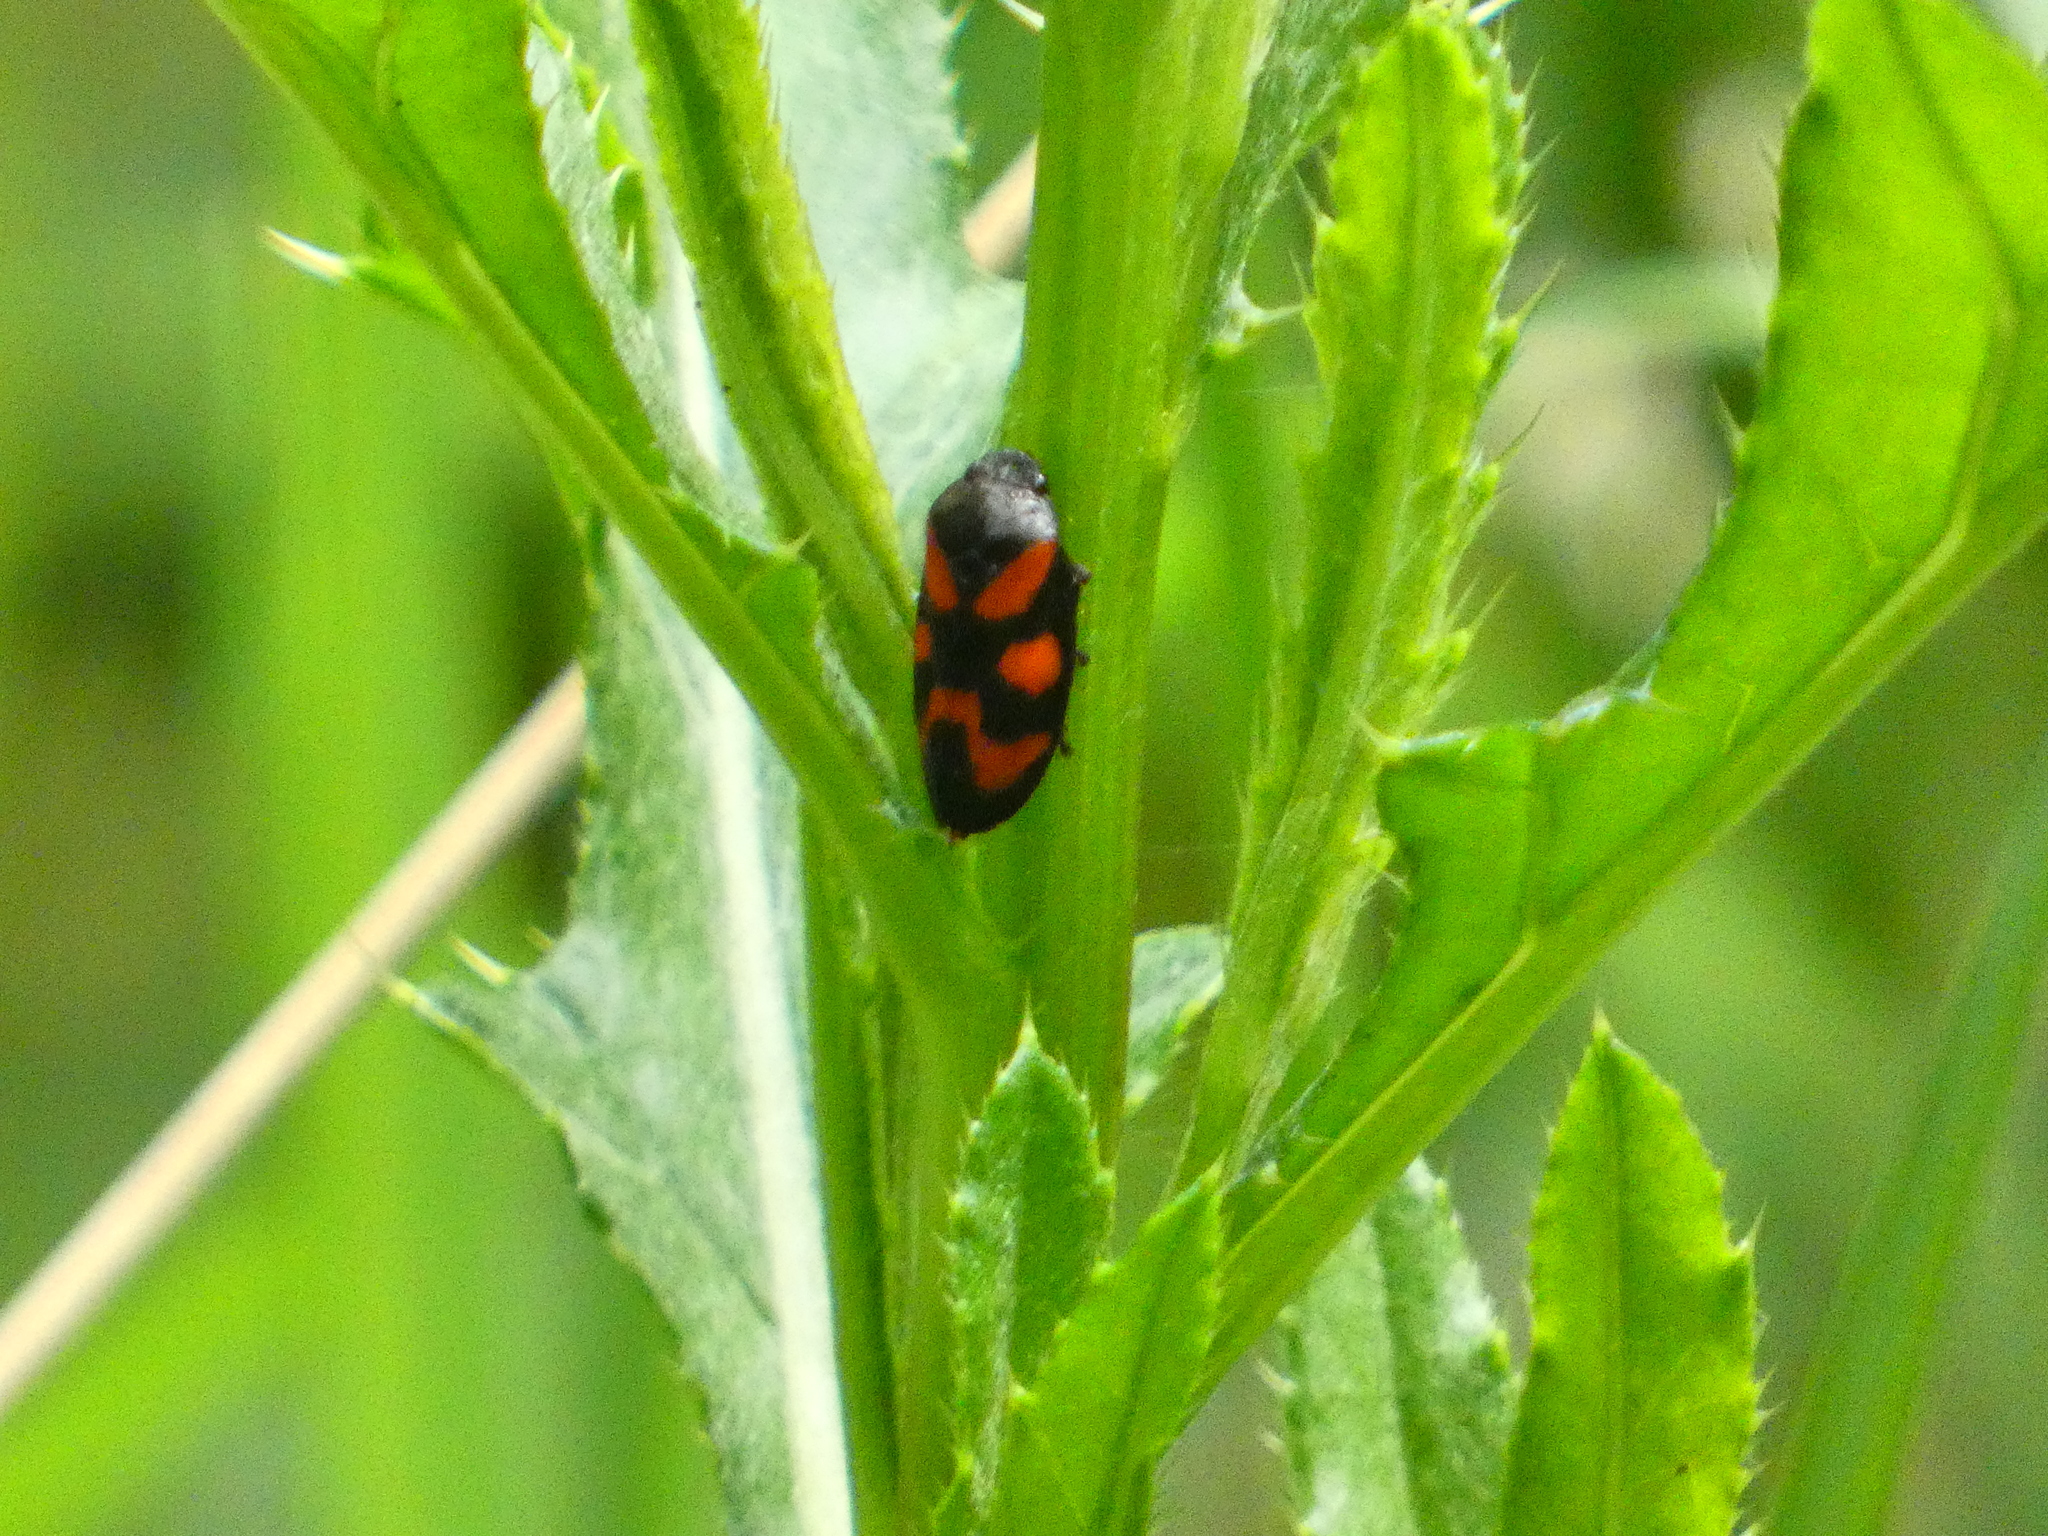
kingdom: Animalia
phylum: Arthropoda
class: Insecta
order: Hemiptera
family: Cercopidae
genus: Cercopis
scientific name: Cercopis vulnerata
